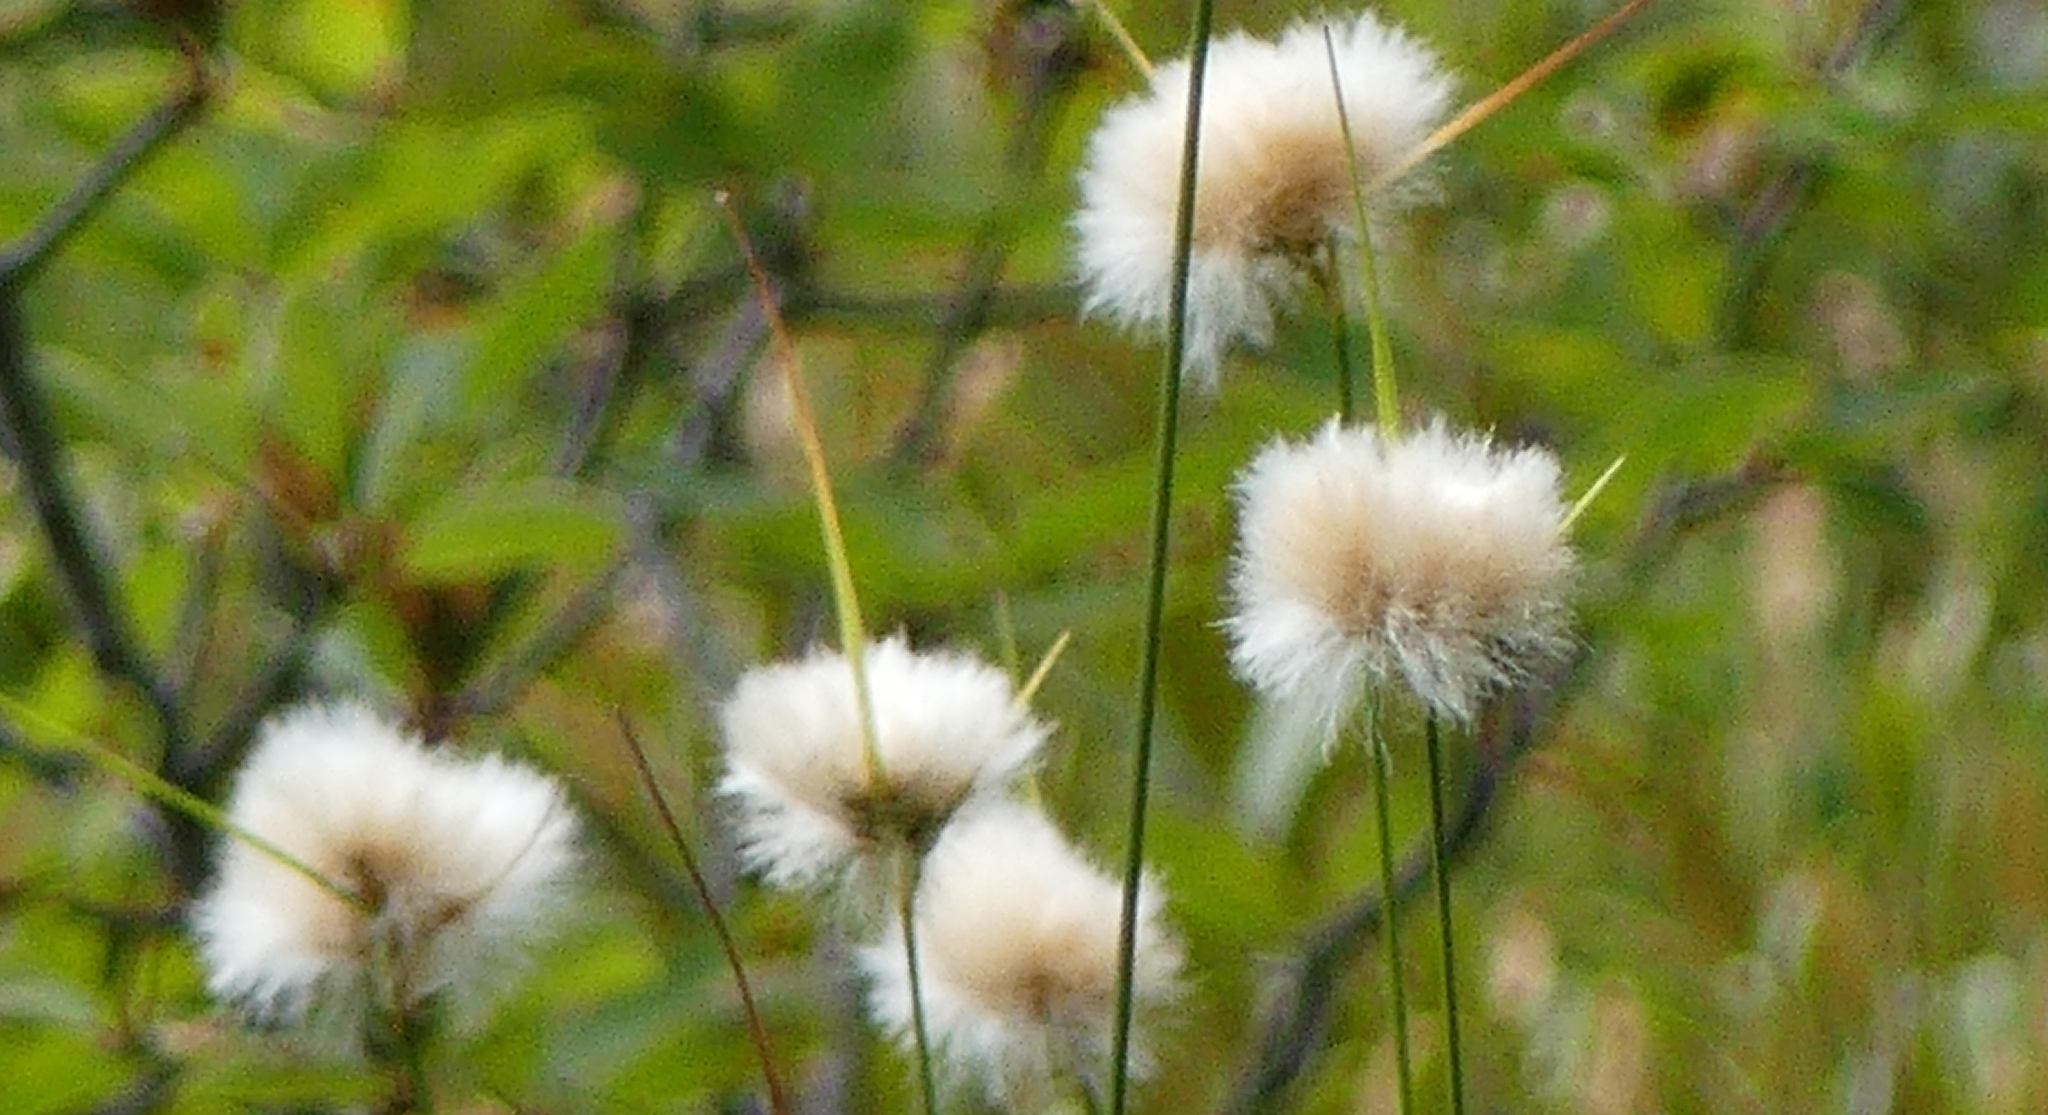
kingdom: Plantae
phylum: Tracheophyta
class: Liliopsida
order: Poales
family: Cyperaceae
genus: Eriophorum
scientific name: Eriophorum virginicum
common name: Tawny cottongrass
